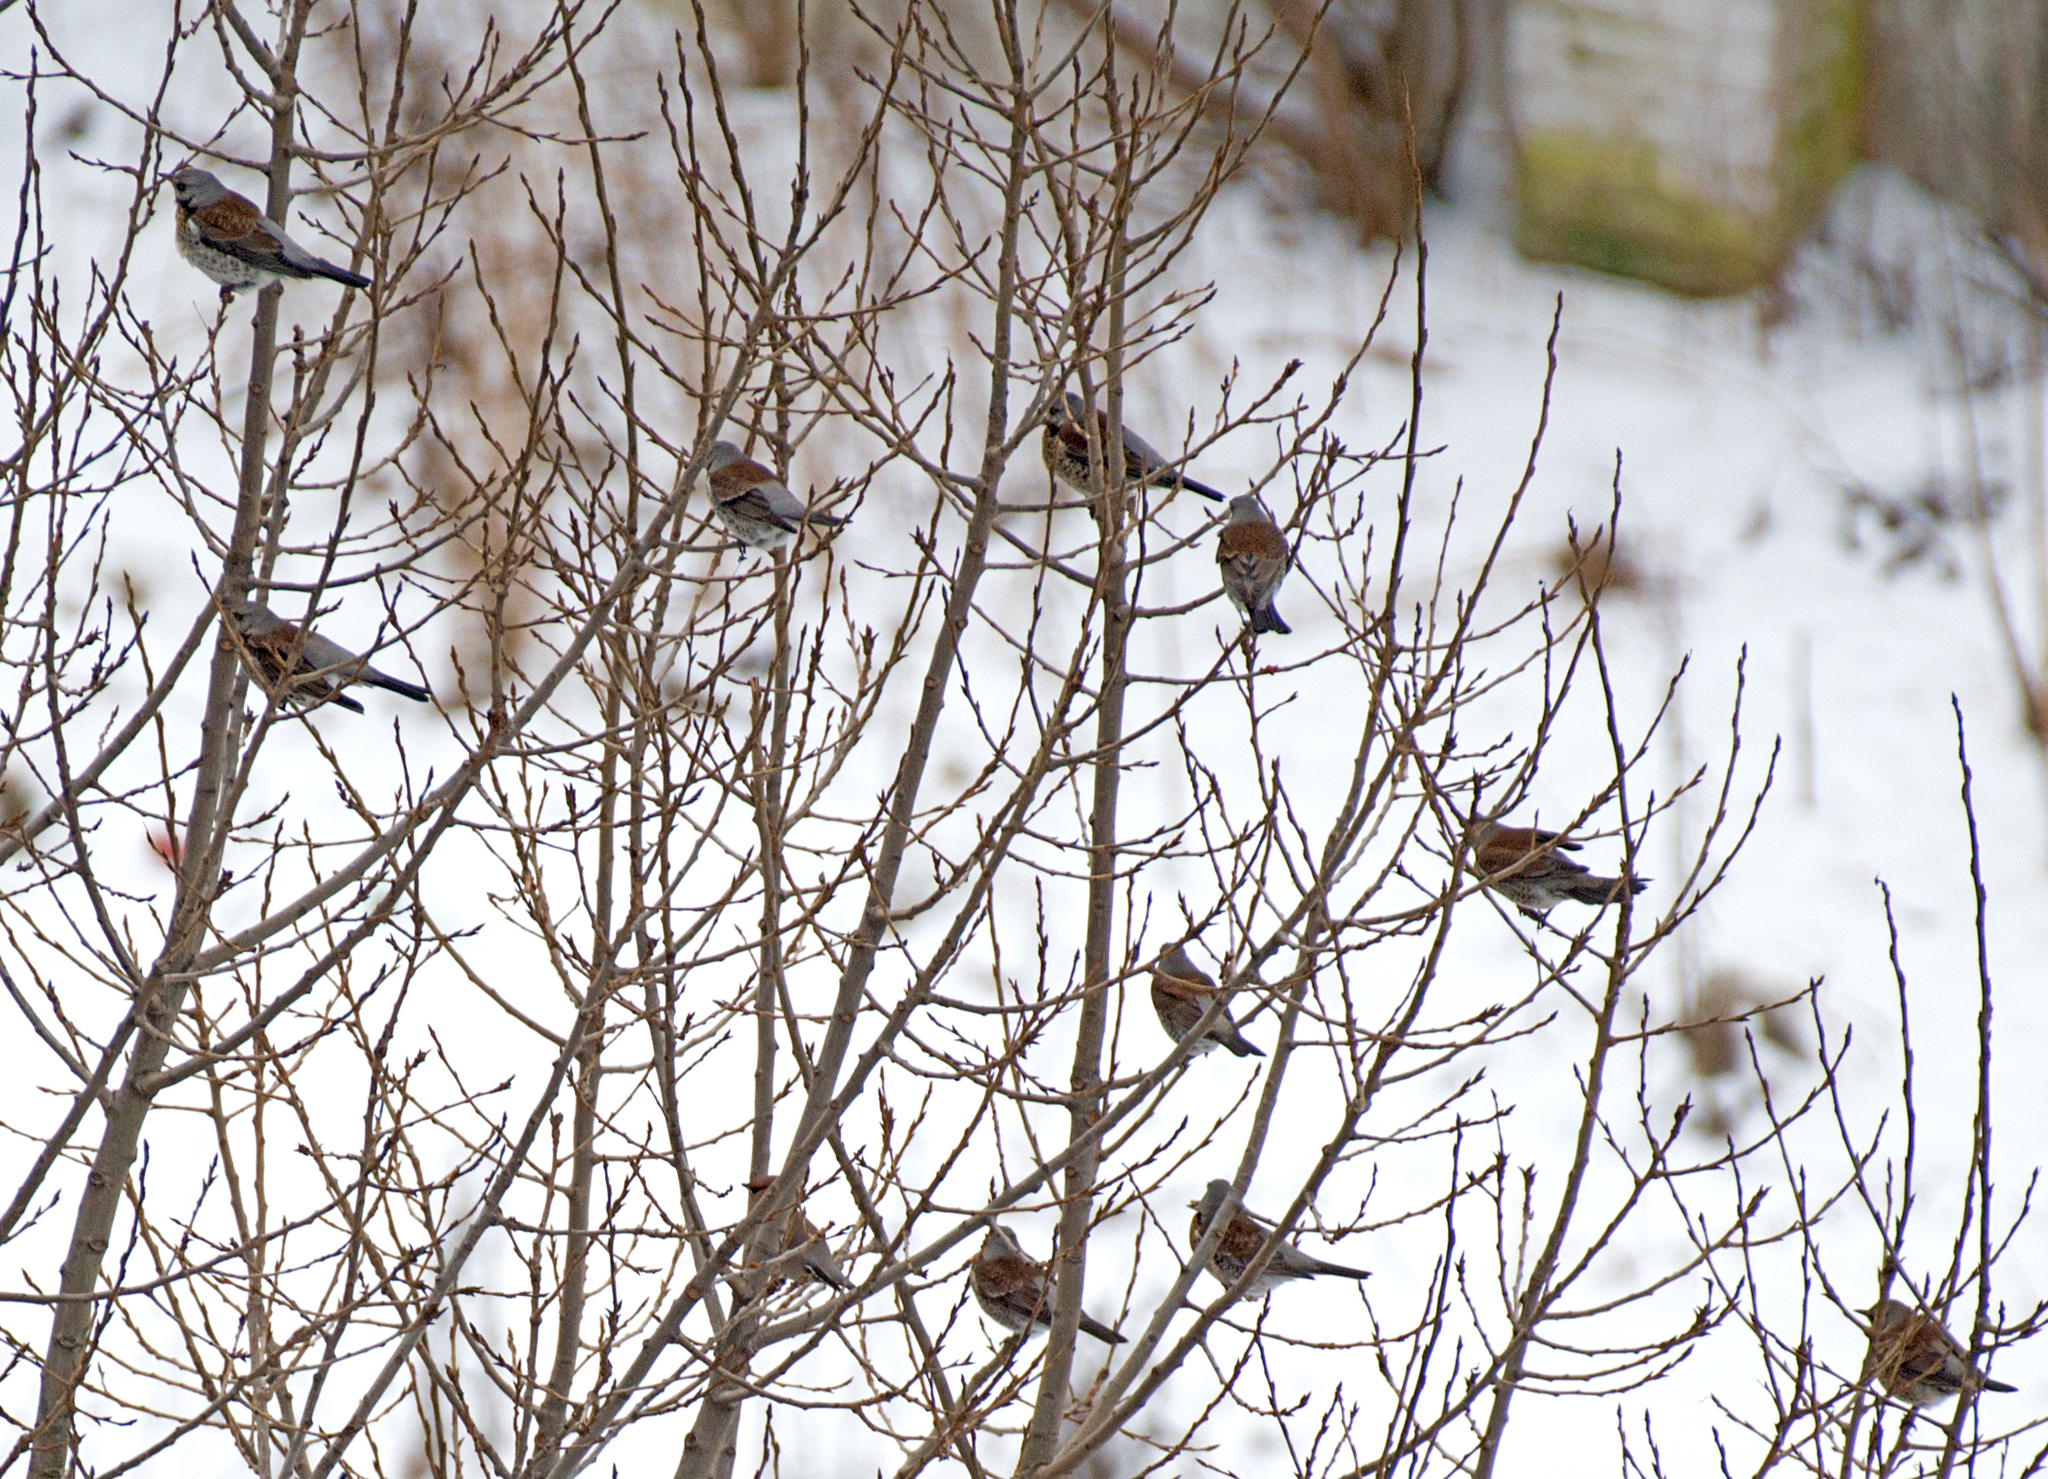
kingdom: Animalia
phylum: Chordata
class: Aves
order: Passeriformes
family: Turdidae
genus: Turdus
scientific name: Turdus pilaris
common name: Fieldfare
